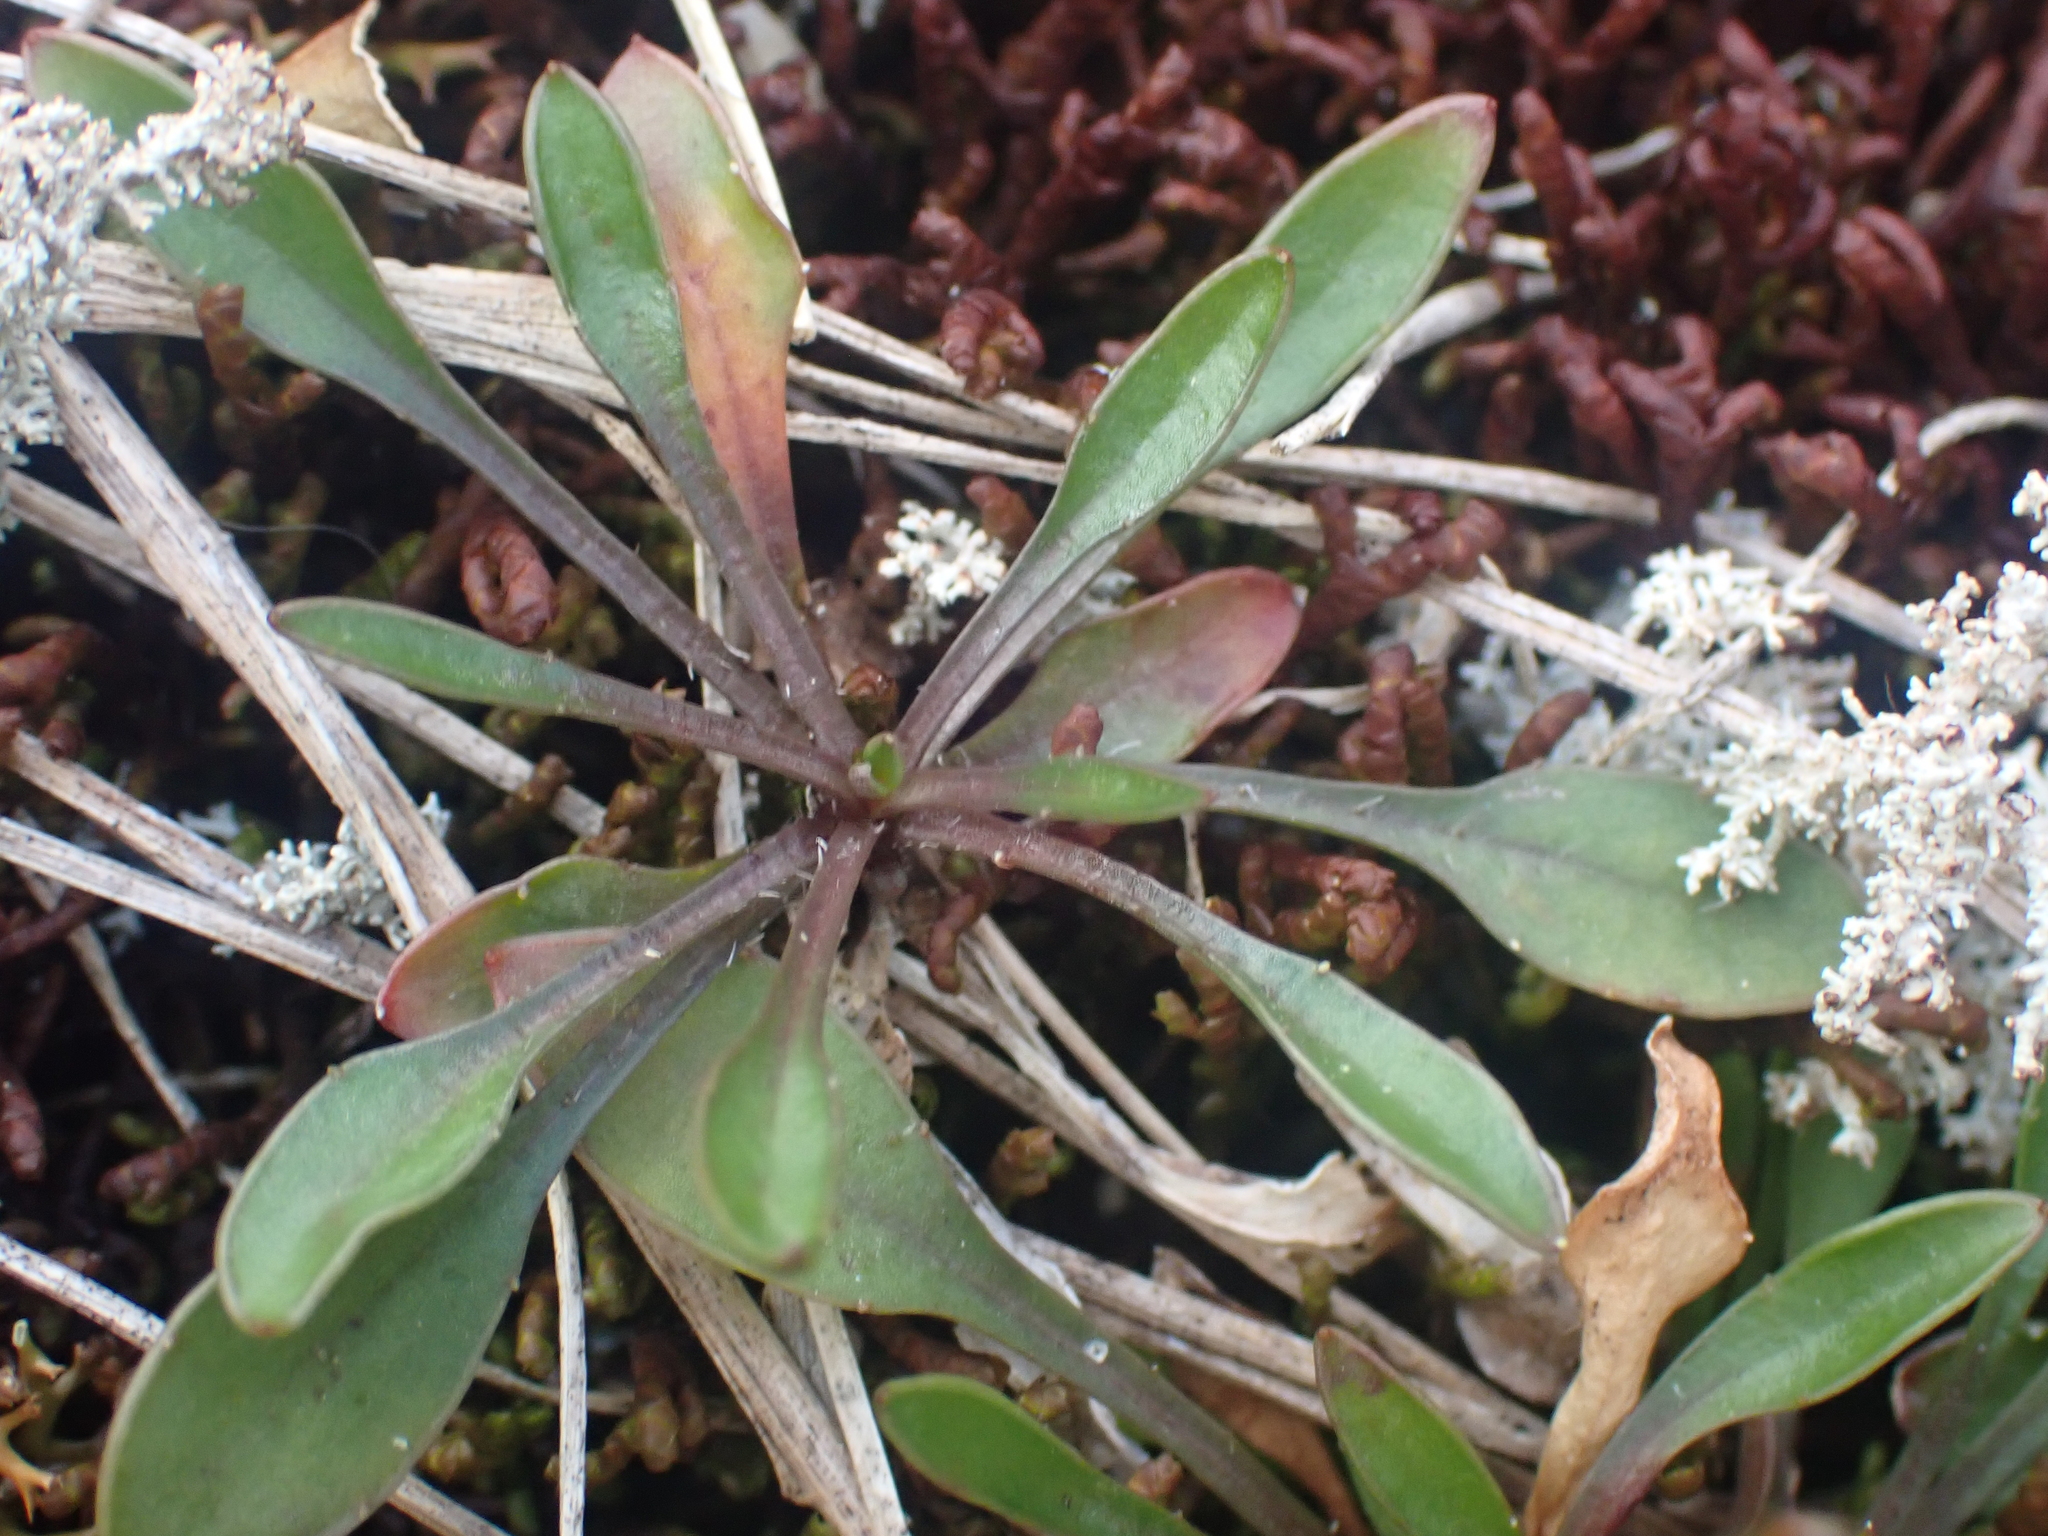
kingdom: Plantae
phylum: Tracheophyta
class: Magnoliopsida
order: Asterales
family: Campanulaceae
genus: Wahlenbergia
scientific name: Wahlenbergia albomarginata
